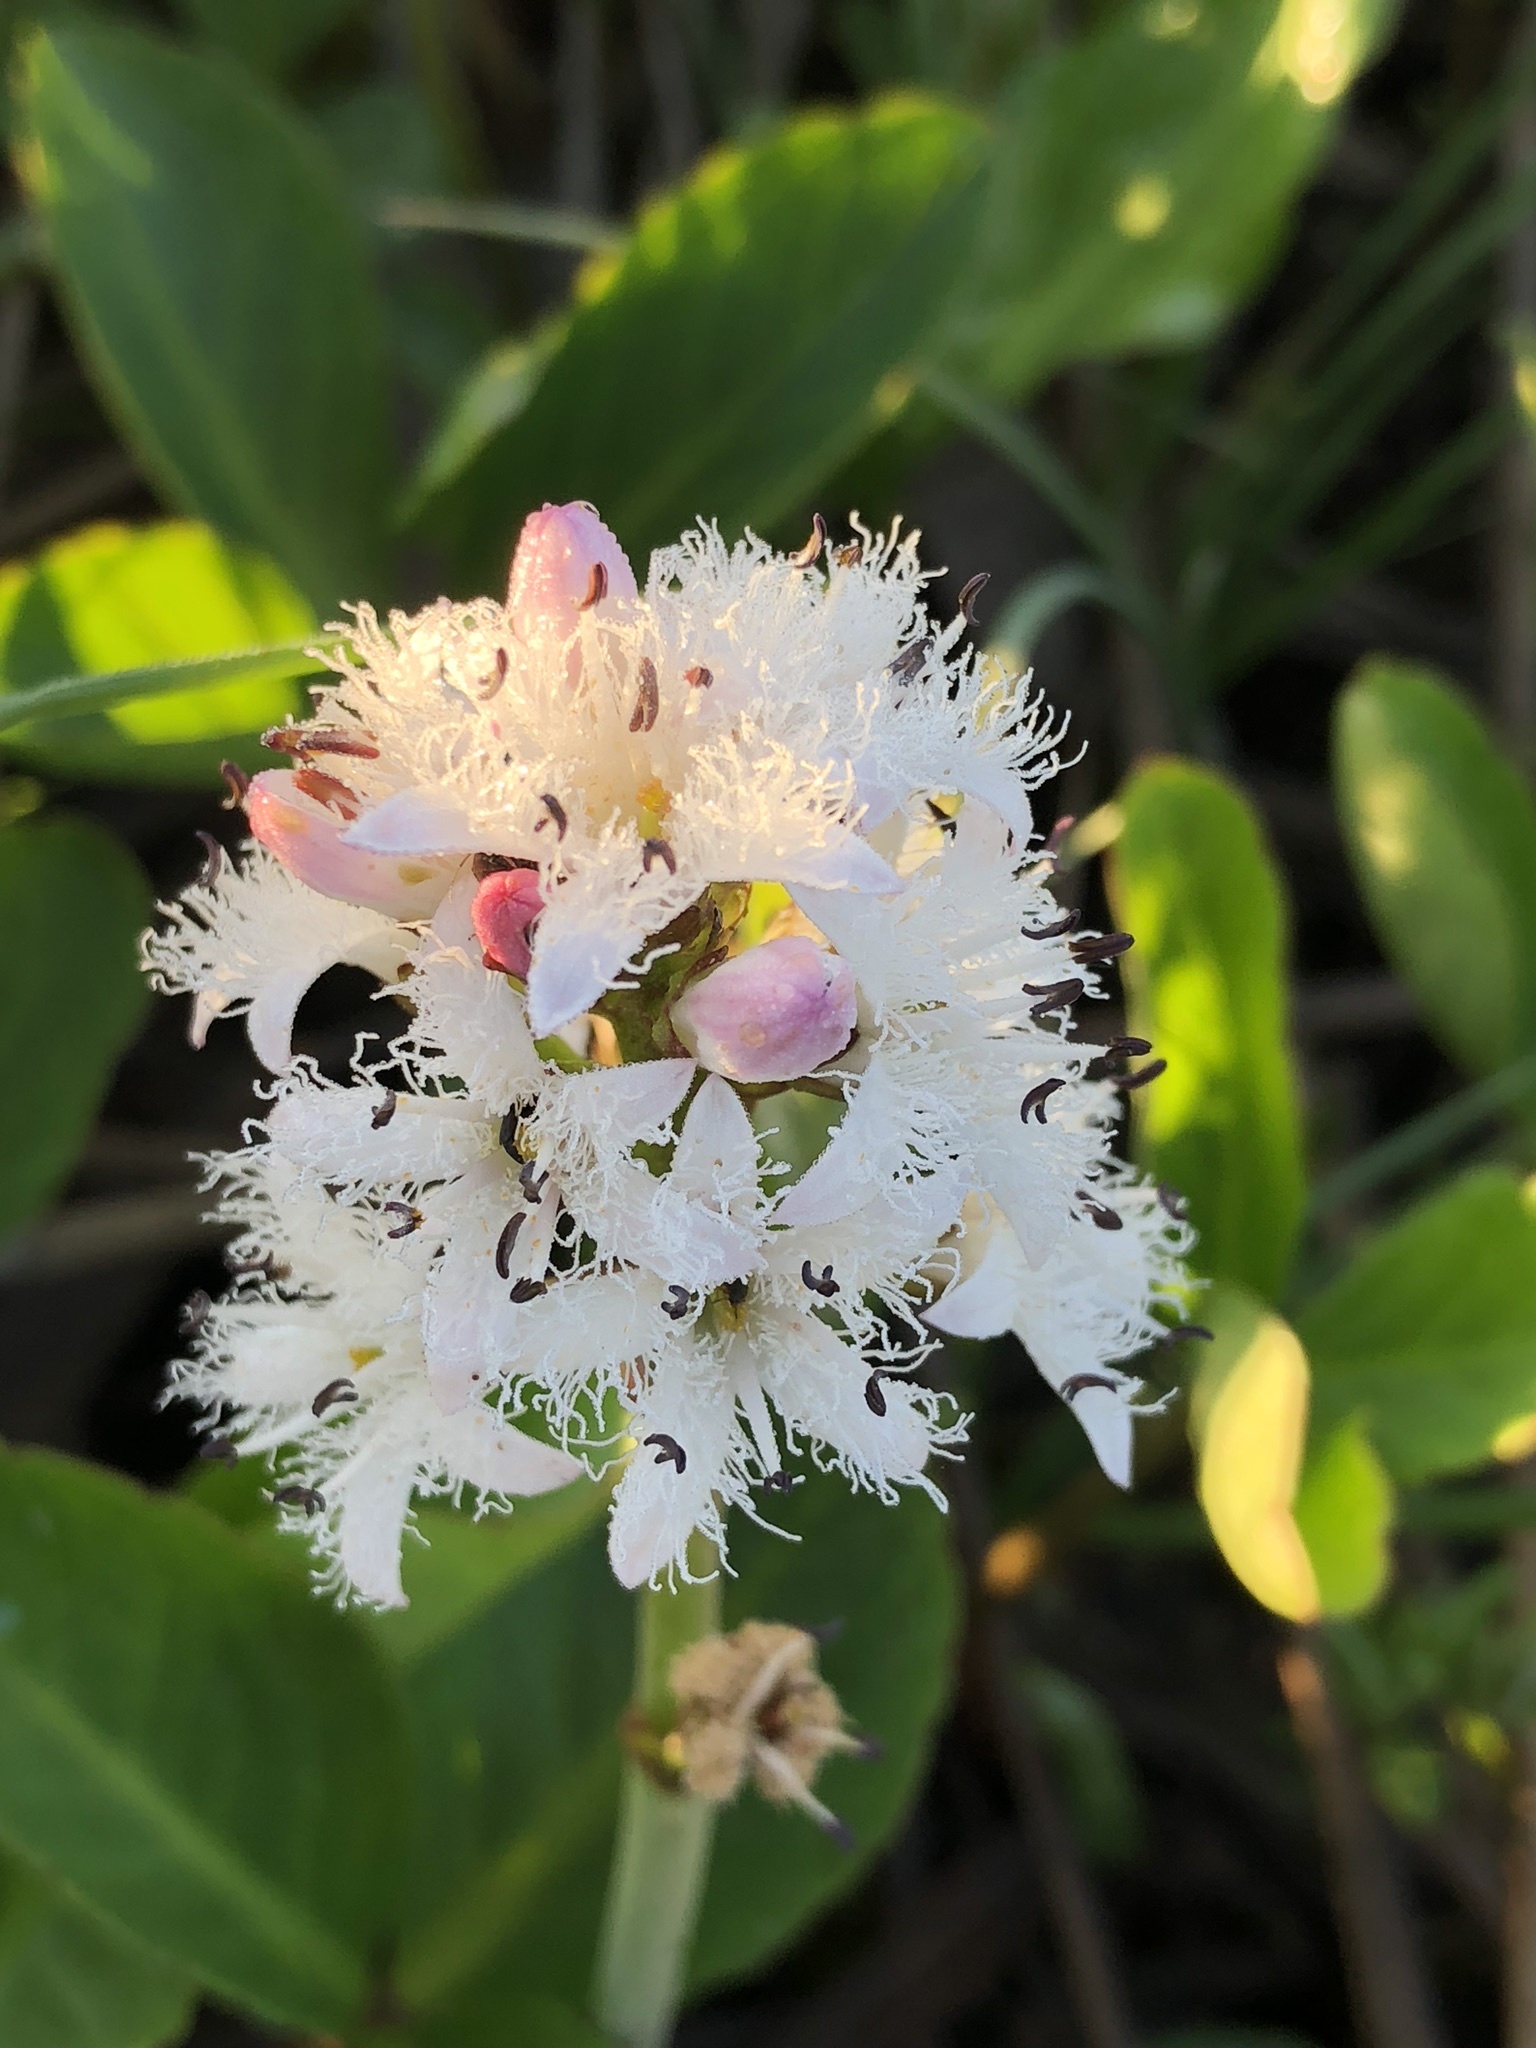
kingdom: Plantae
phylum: Tracheophyta
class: Magnoliopsida
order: Asterales
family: Menyanthaceae
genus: Menyanthes
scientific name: Menyanthes trifoliata
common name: Bogbean
